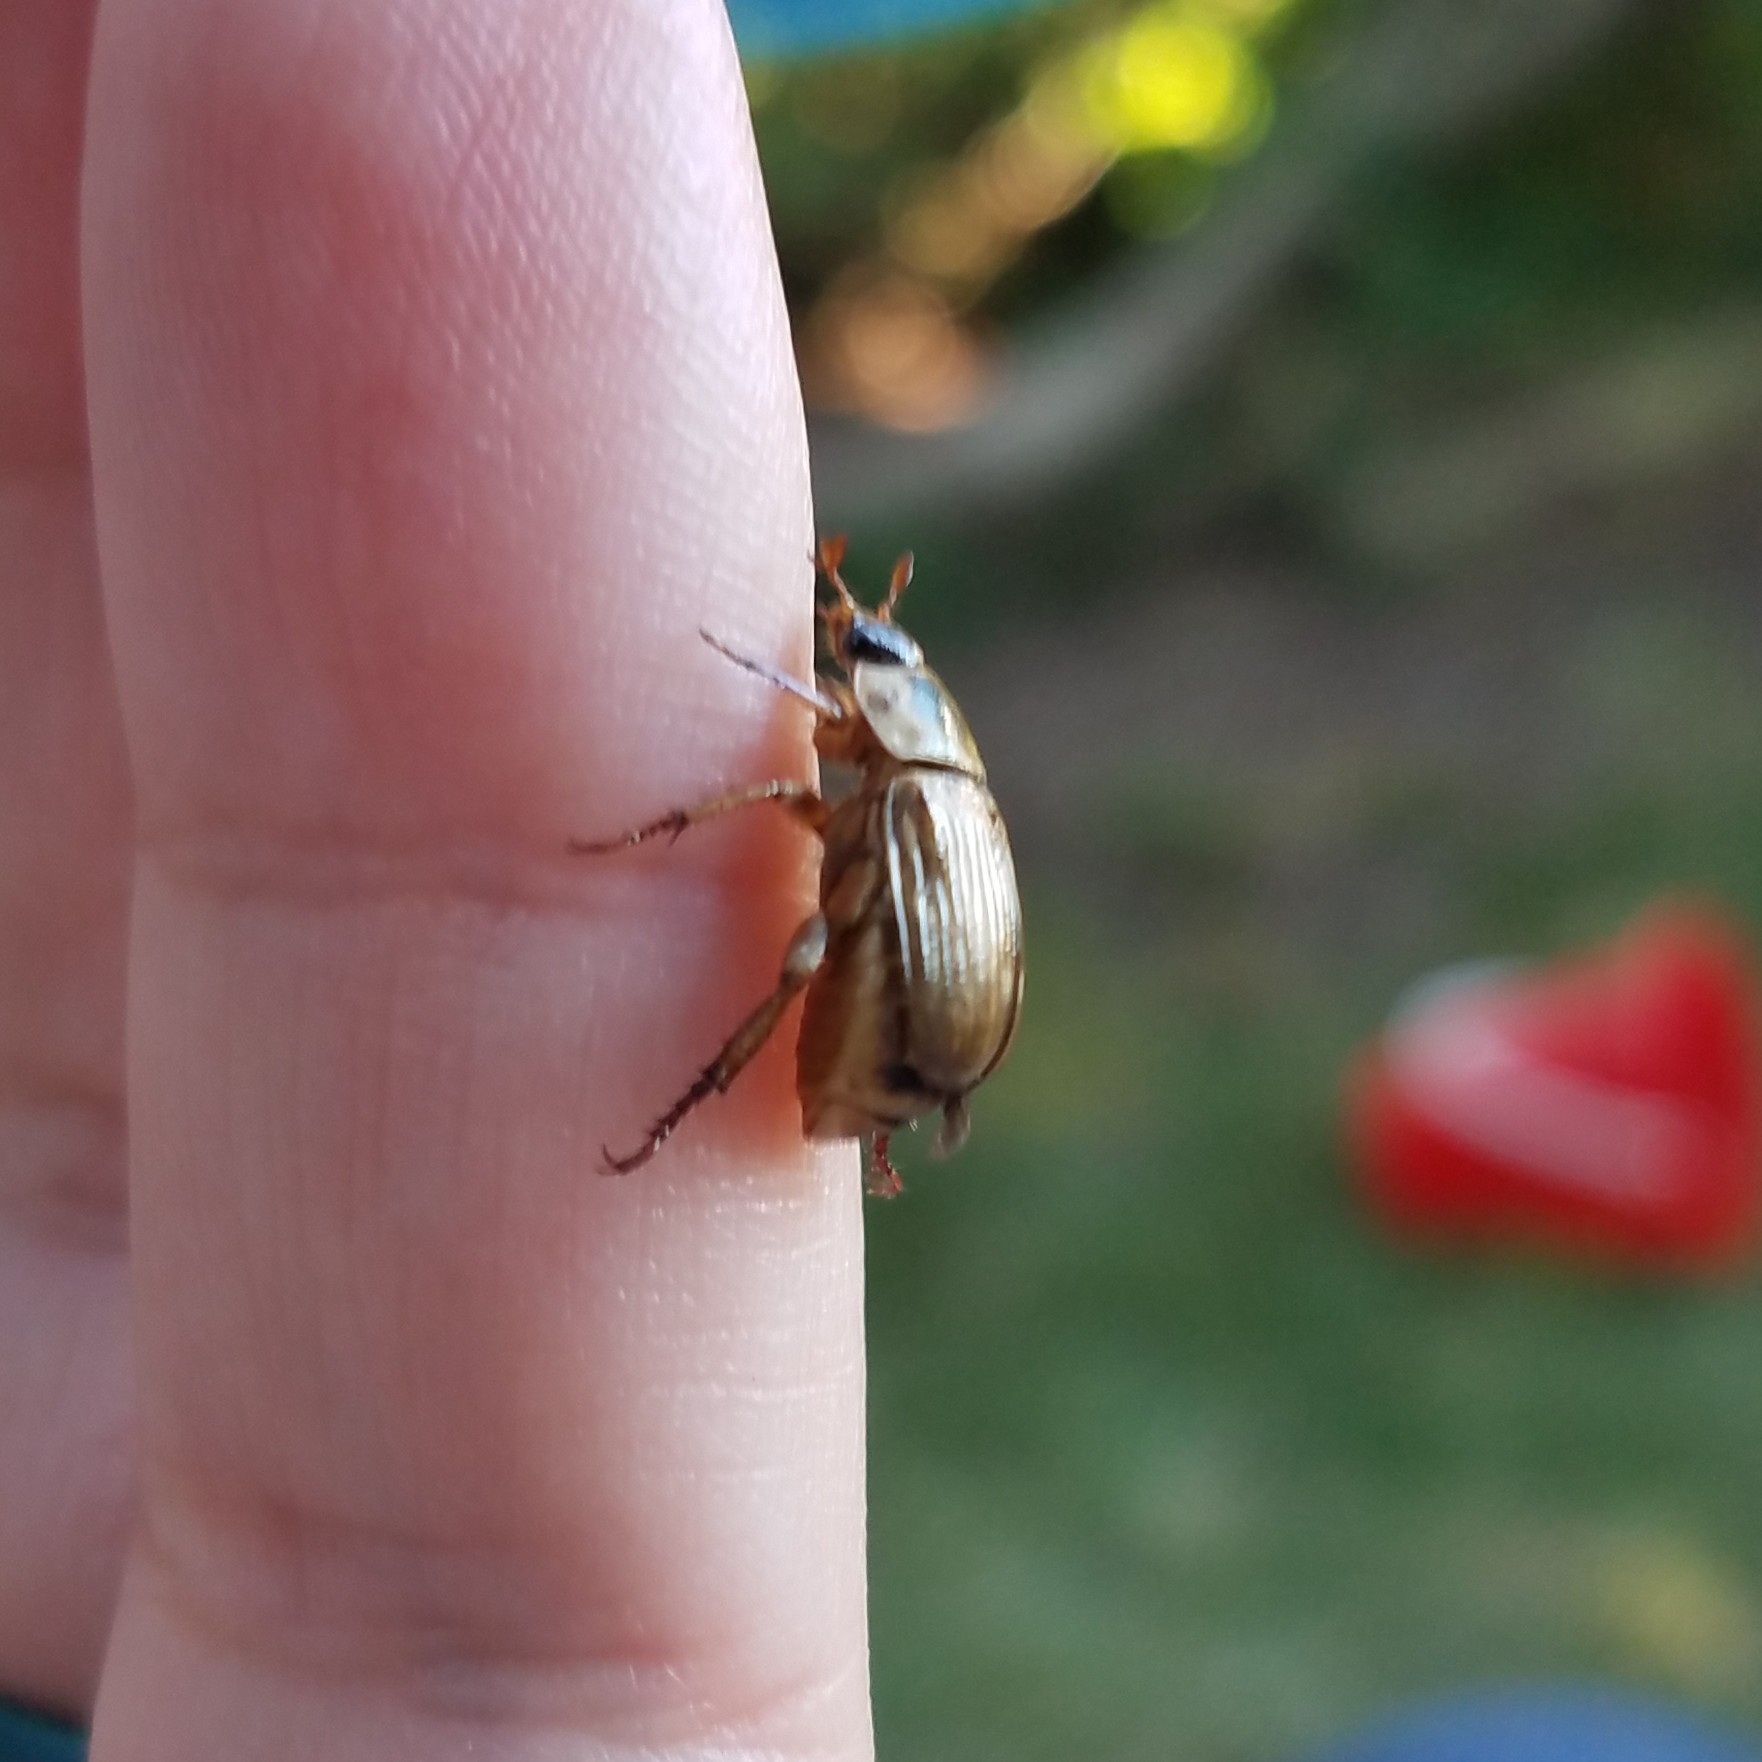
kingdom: Animalia
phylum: Arthropoda
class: Insecta
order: Coleoptera
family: Scarabaeidae
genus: Exomala
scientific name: Exomala orientalis
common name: Oriental beetle
